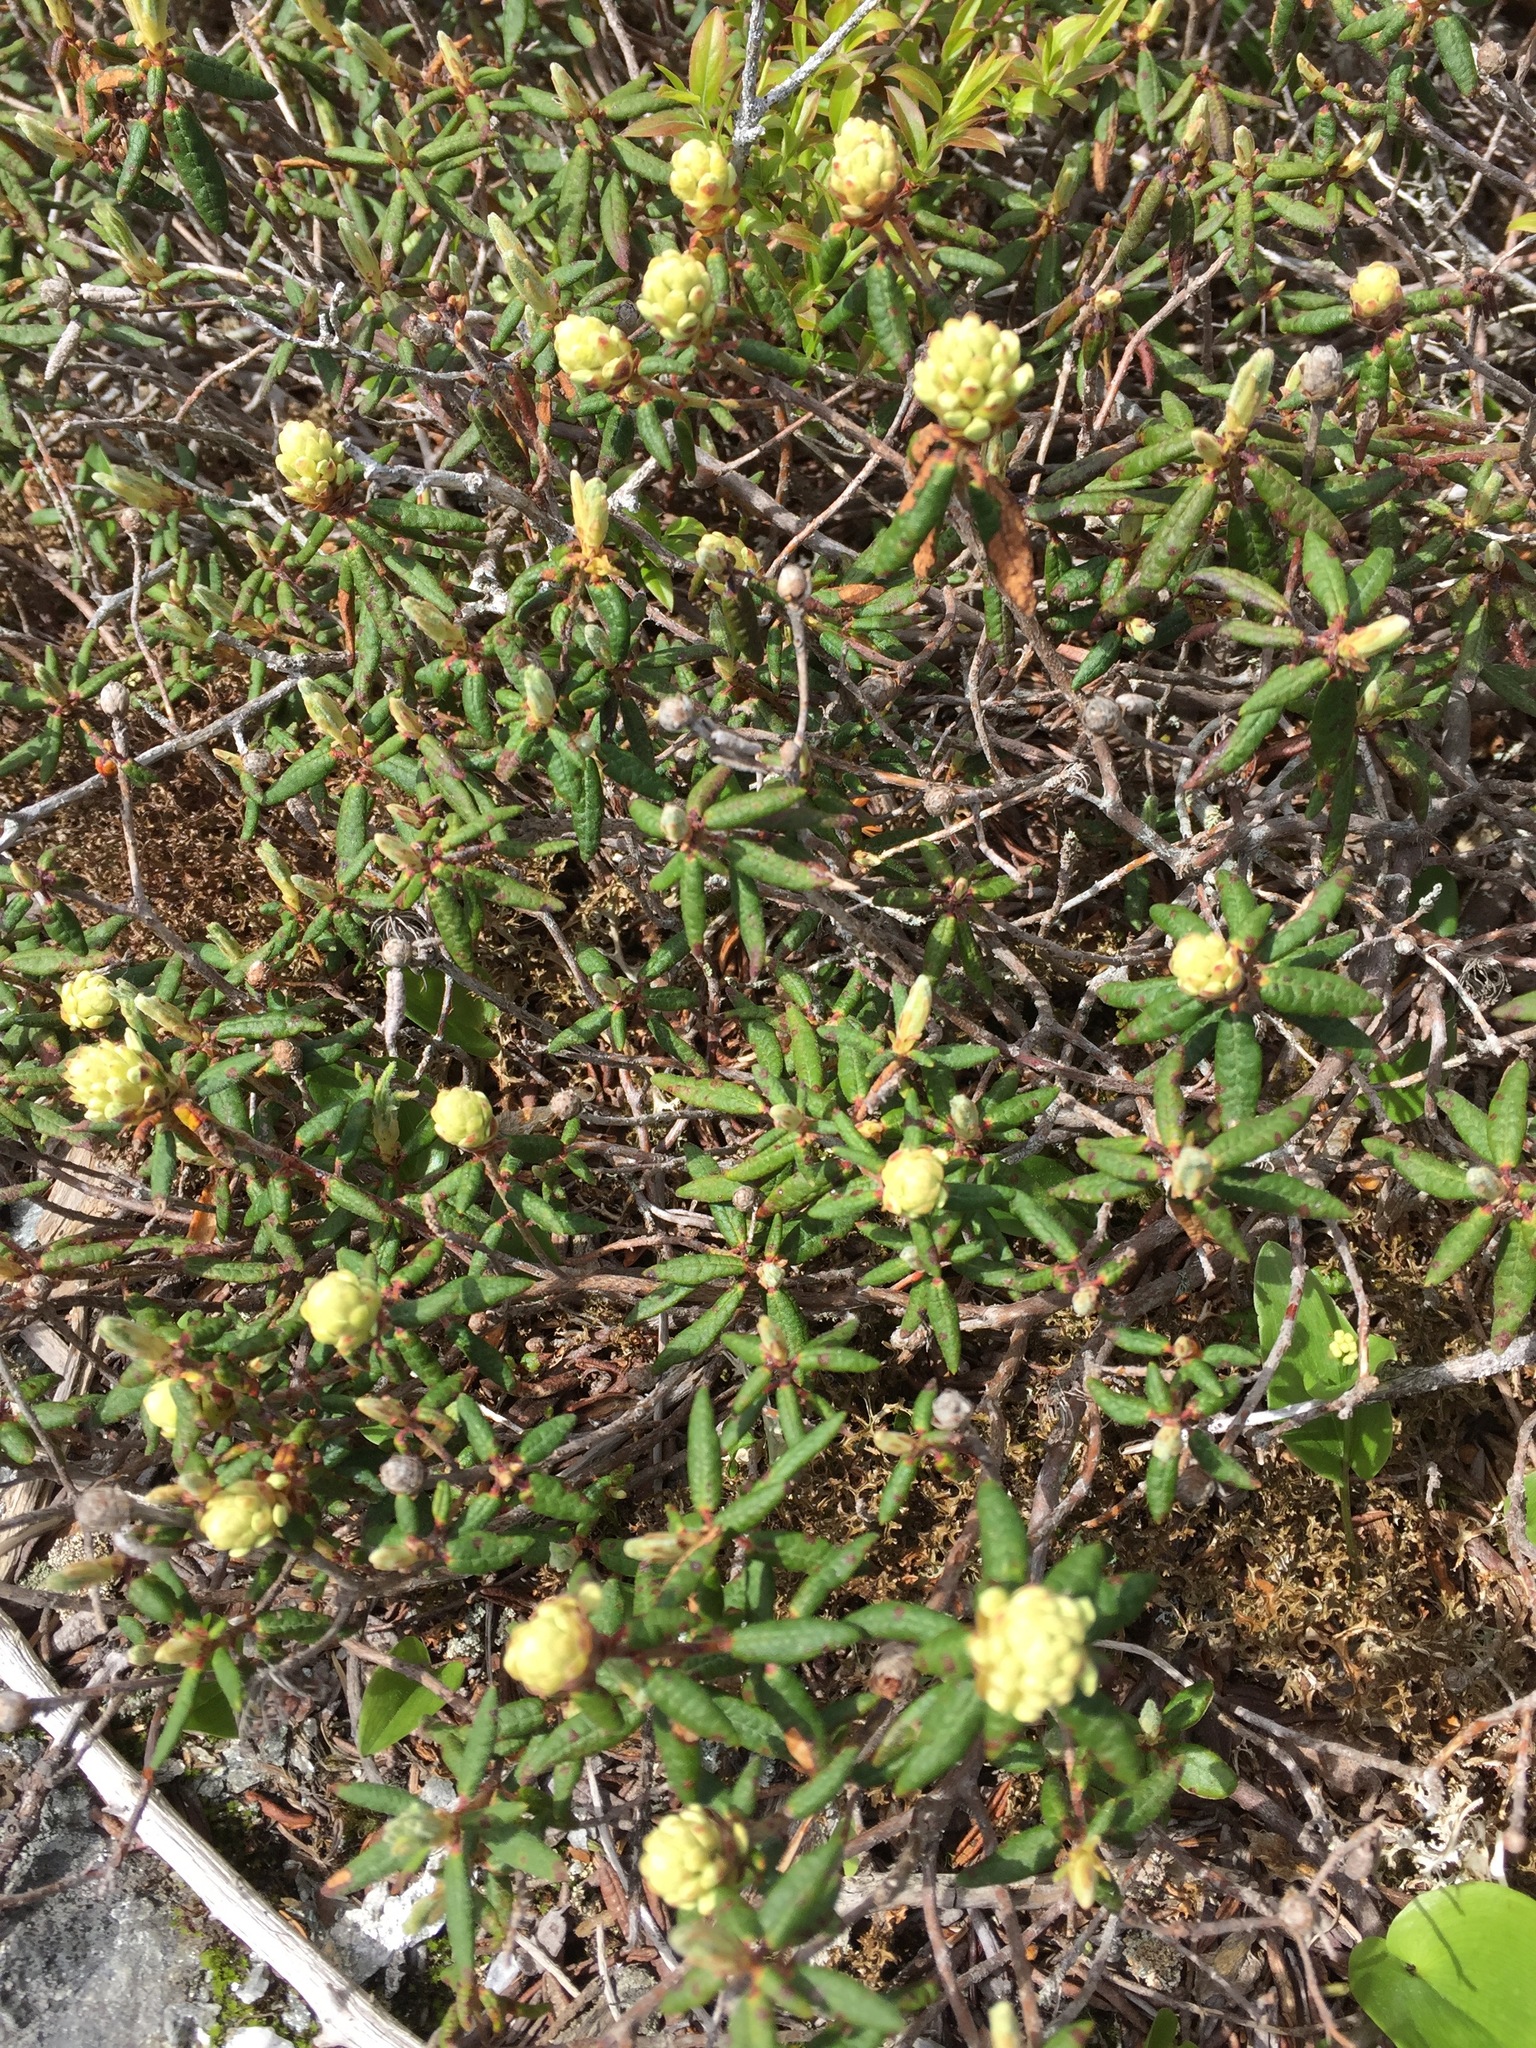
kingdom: Plantae
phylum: Tracheophyta
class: Magnoliopsida
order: Ericales
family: Ericaceae
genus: Rhododendron
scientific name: Rhododendron groenlandicum
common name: Bog labrador tea
